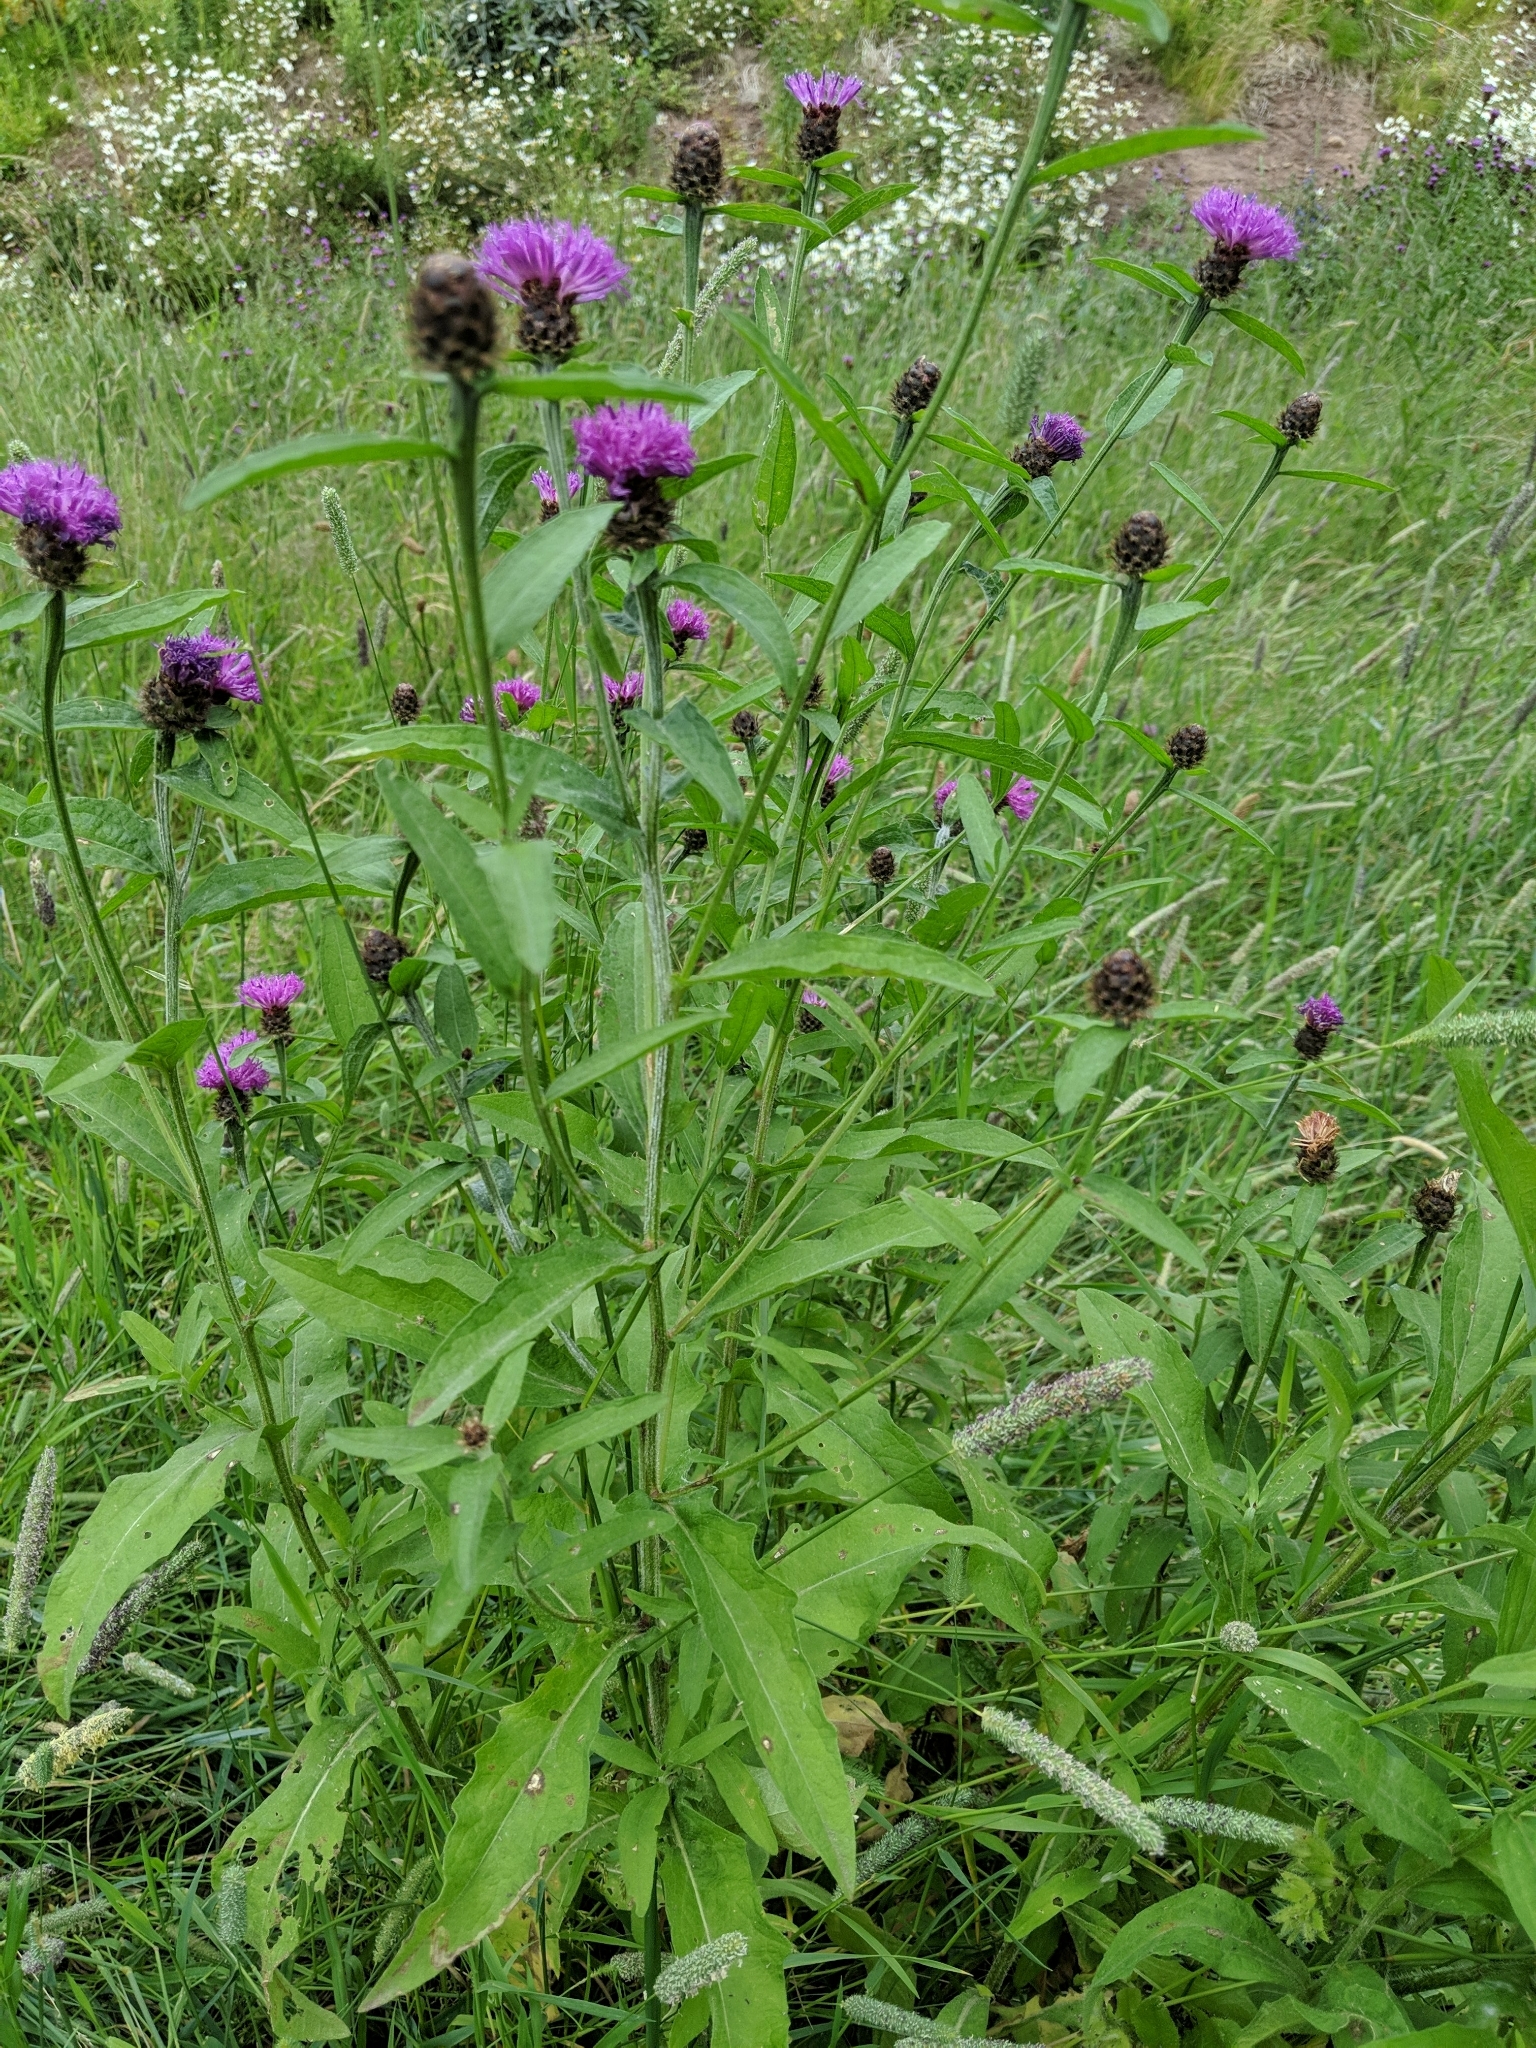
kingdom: Plantae
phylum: Tracheophyta
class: Magnoliopsida
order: Asterales
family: Asteraceae
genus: Centaurea
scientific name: Centaurea nigra
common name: Lesser knapweed
